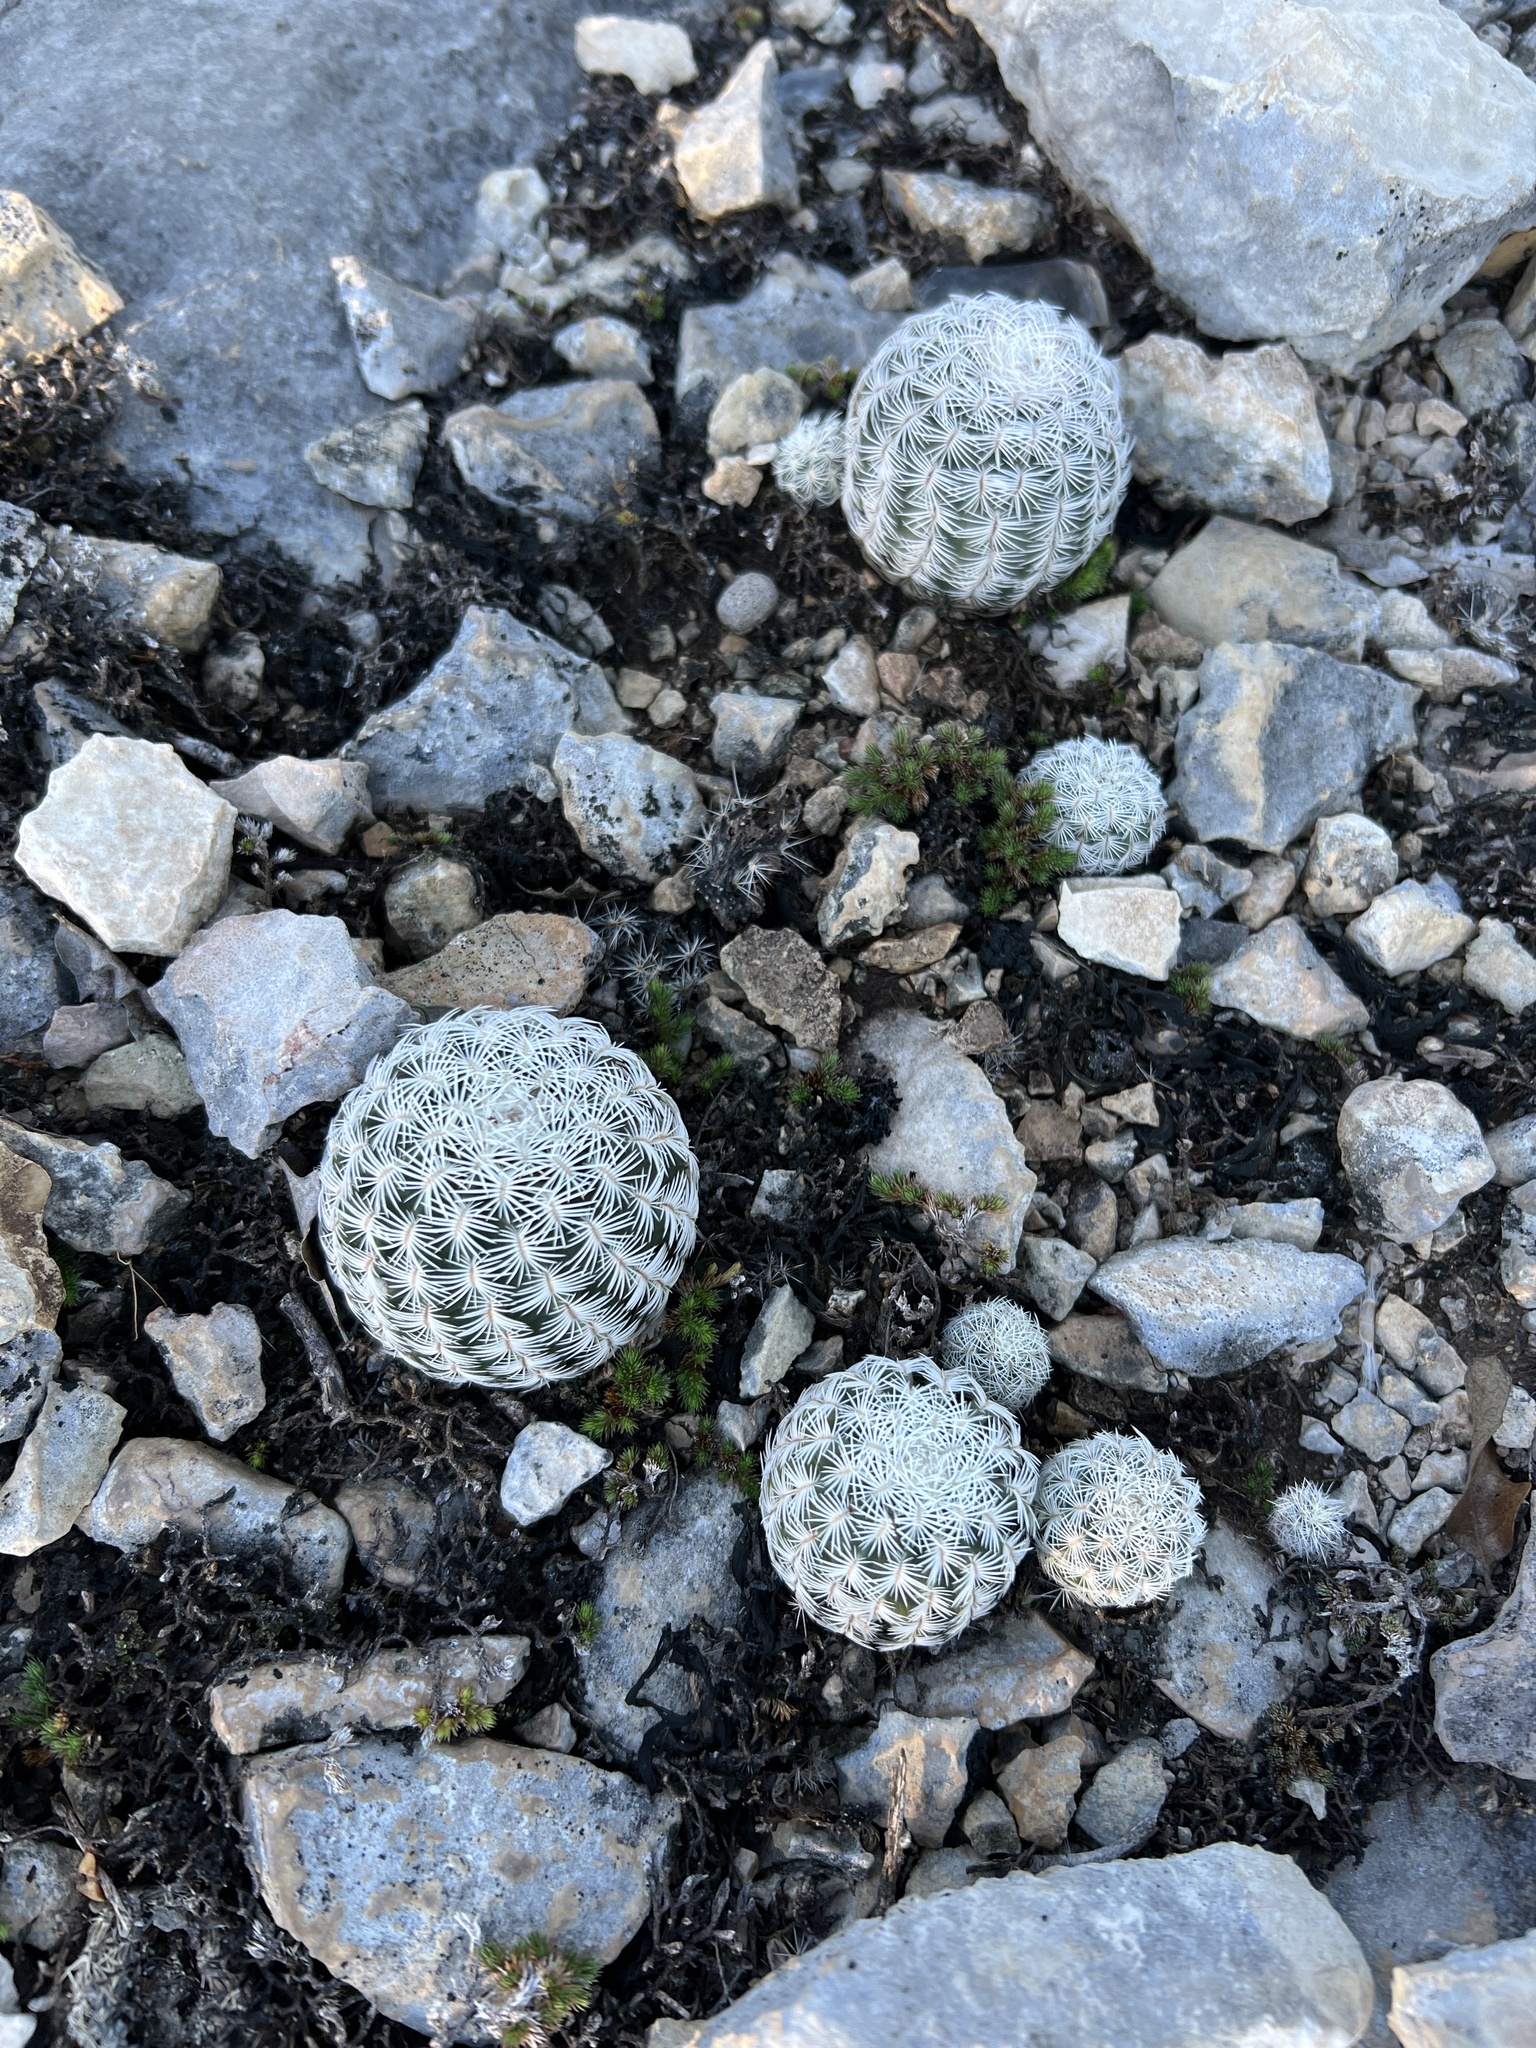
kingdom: Plantae
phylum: Tracheophyta
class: Magnoliopsida
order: Caryophyllales
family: Cactaceae
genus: Echinocereus
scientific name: Echinocereus reichenbachii
